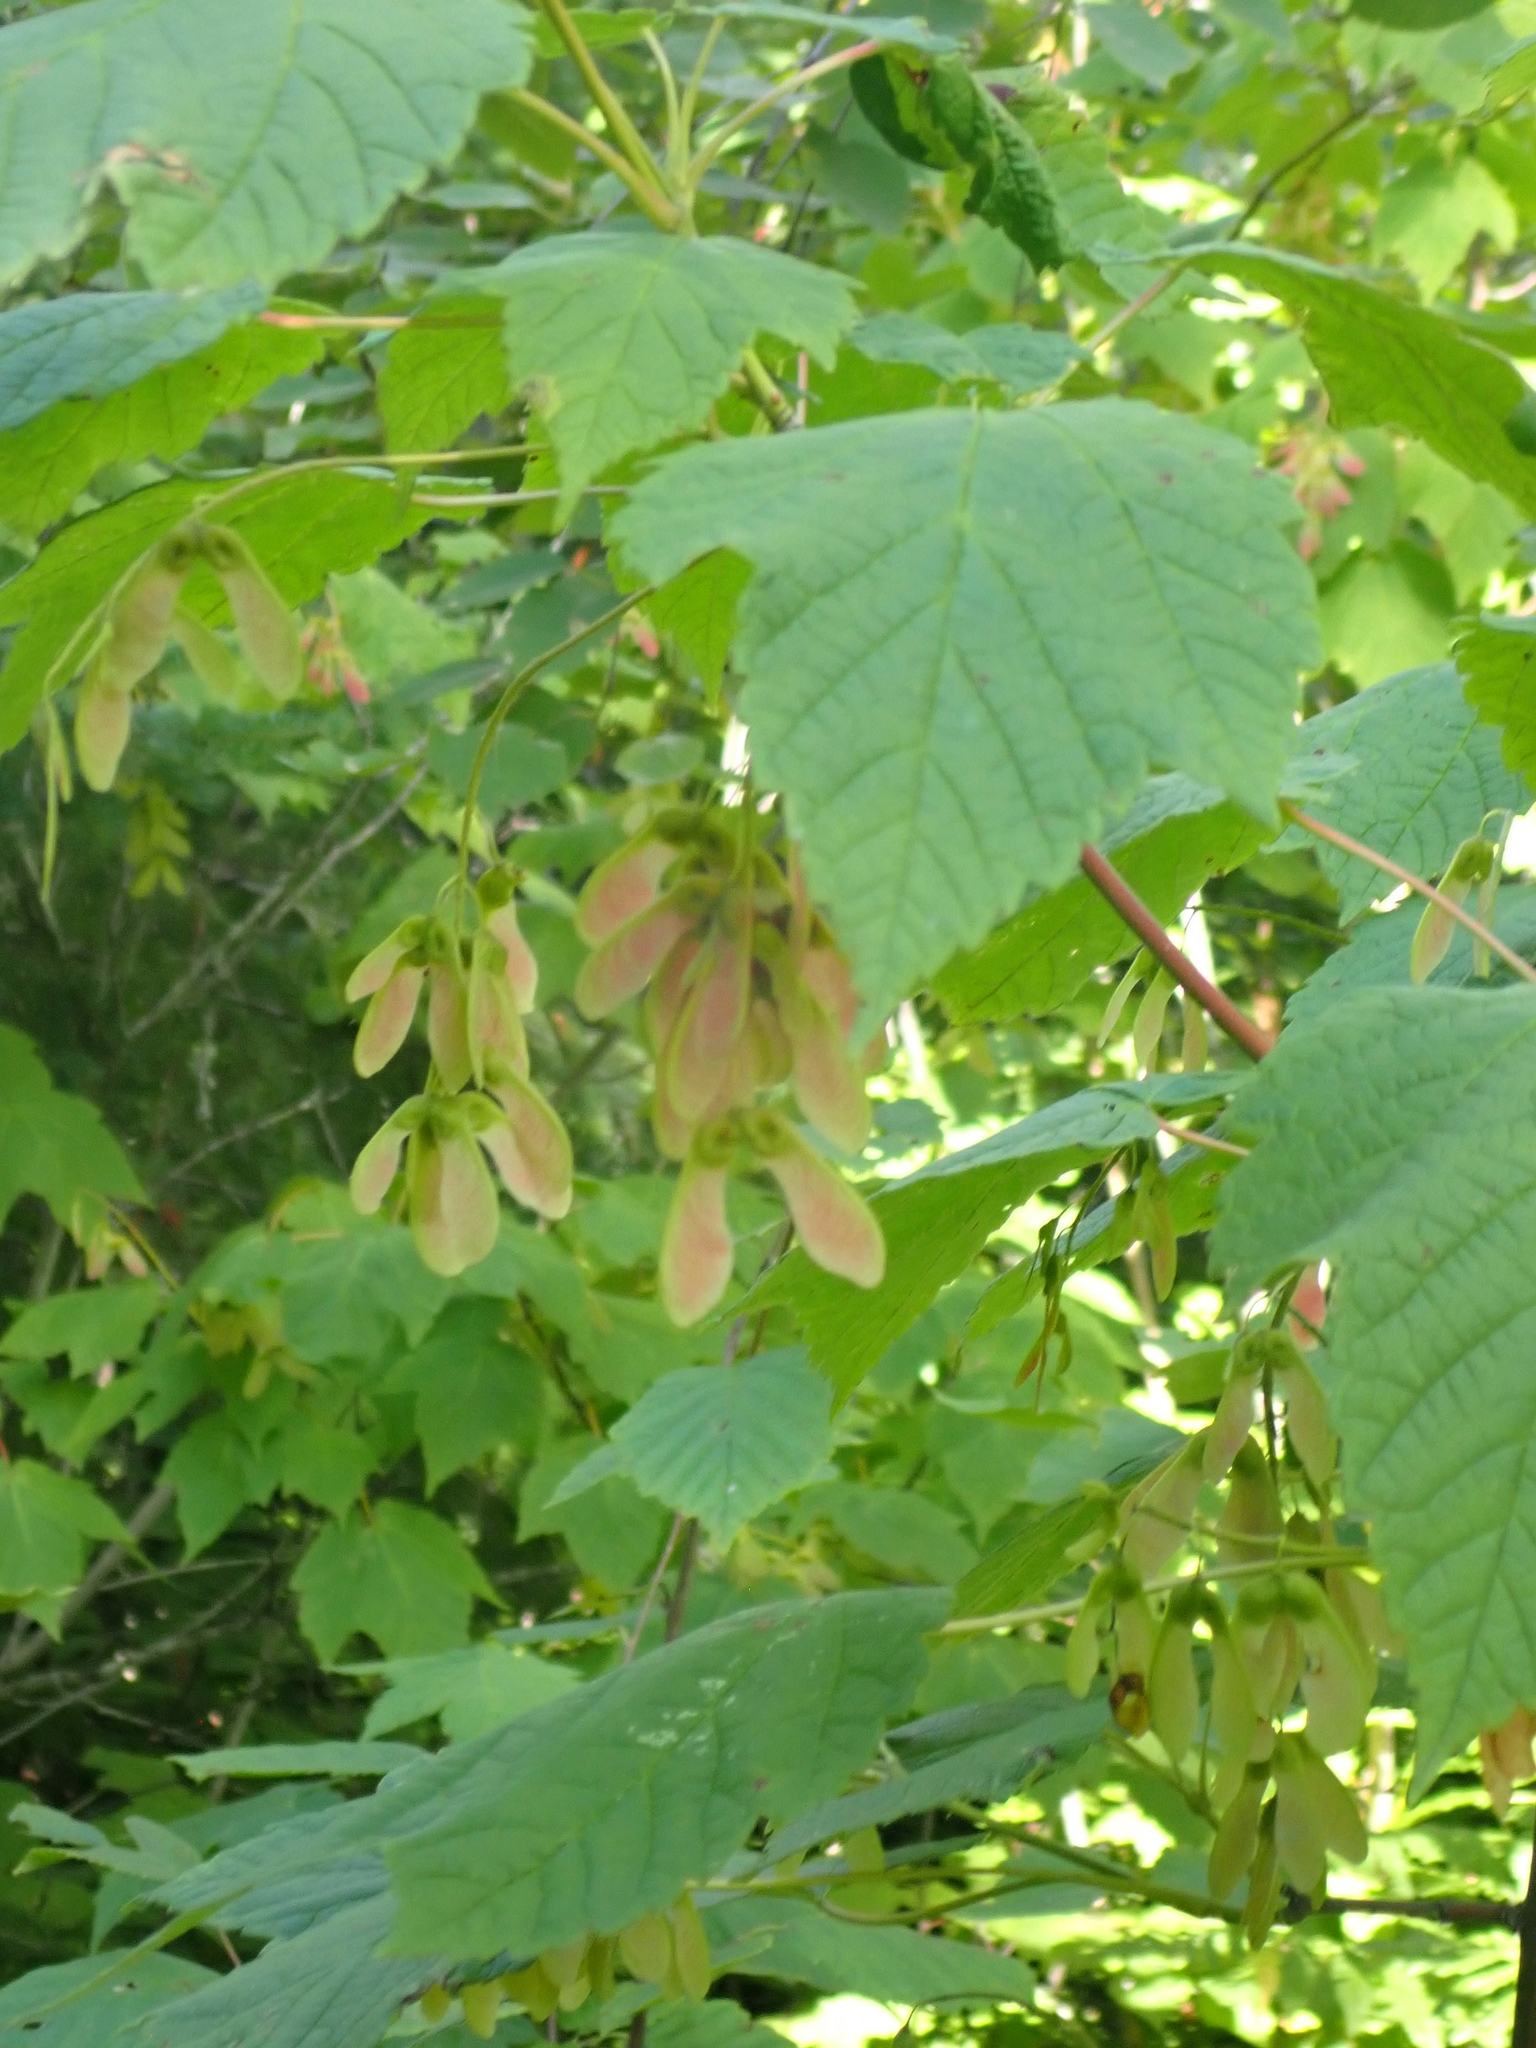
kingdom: Plantae
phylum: Tracheophyta
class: Magnoliopsida
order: Sapindales
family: Sapindaceae
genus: Acer
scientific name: Acer spicatum
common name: Mountain maple
